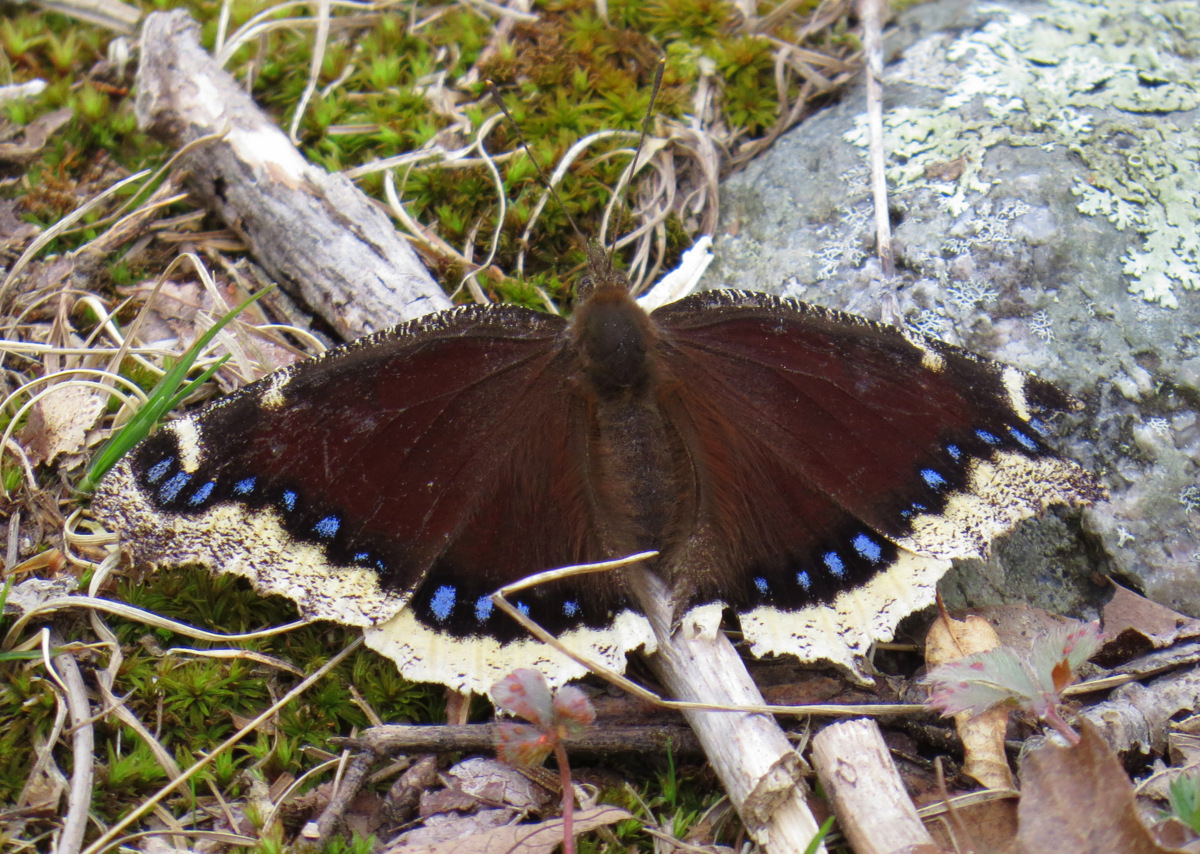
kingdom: Animalia
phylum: Arthropoda
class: Insecta
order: Lepidoptera
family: Nymphalidae
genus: Nymphalis
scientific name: Nymphalis antiopa
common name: Camberwell beauty
